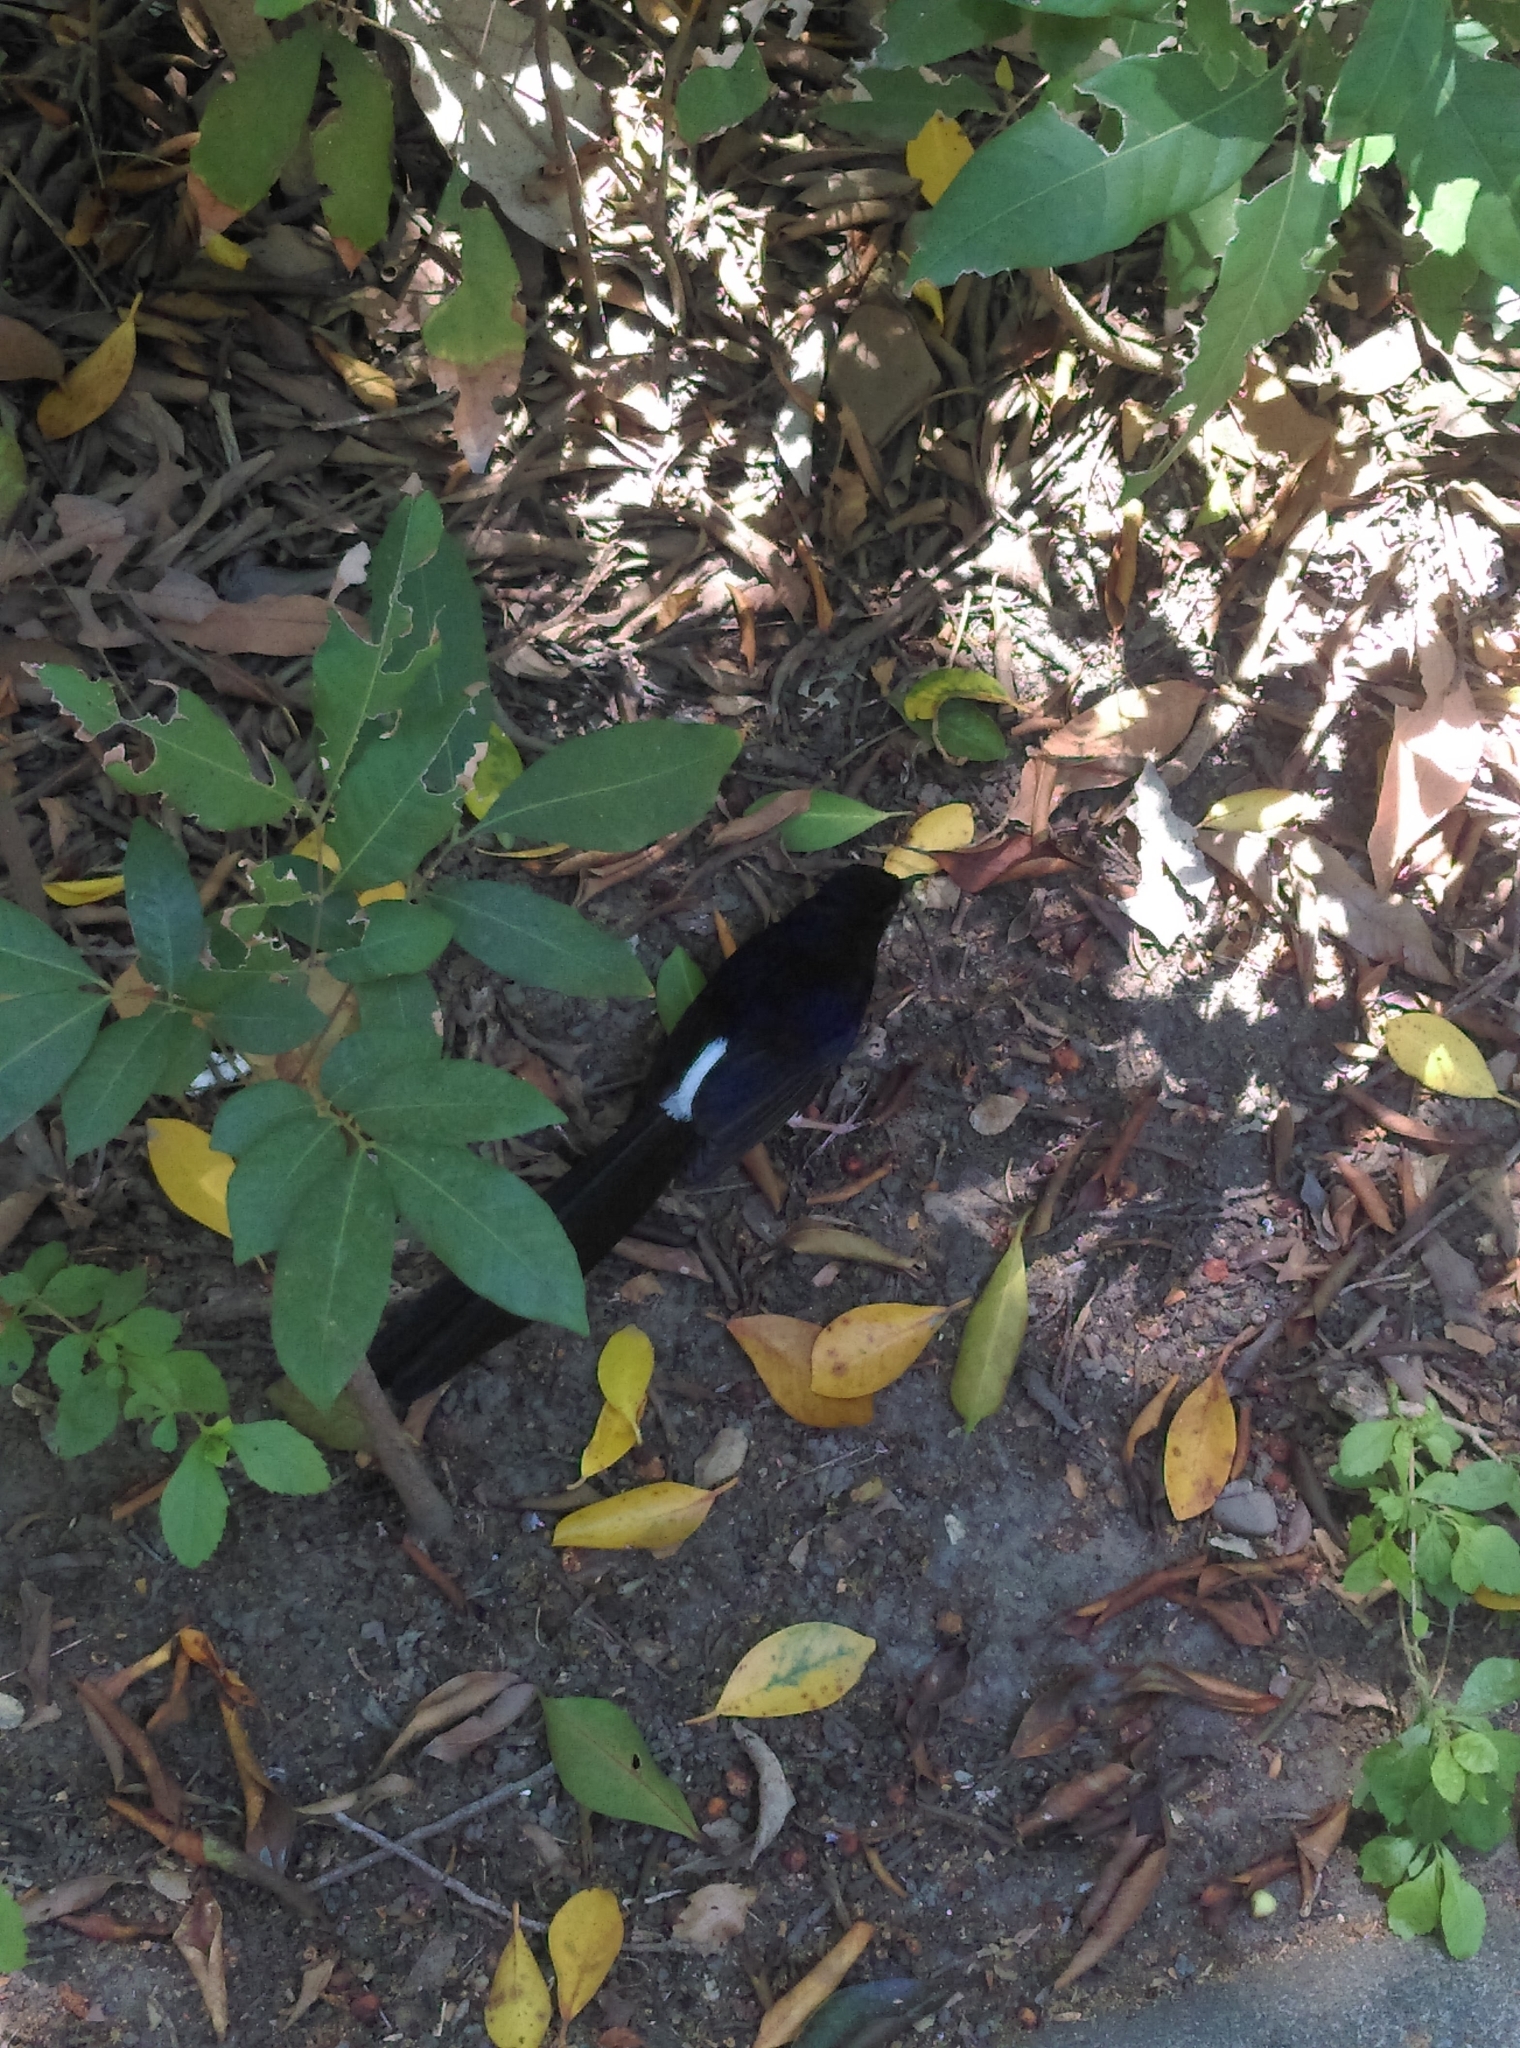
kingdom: Animalia
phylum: Chordata
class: Aves
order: Passeriformes
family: Muscicapidae
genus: Copsychus
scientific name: Copsychus malabaricus
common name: White-rumped shama
